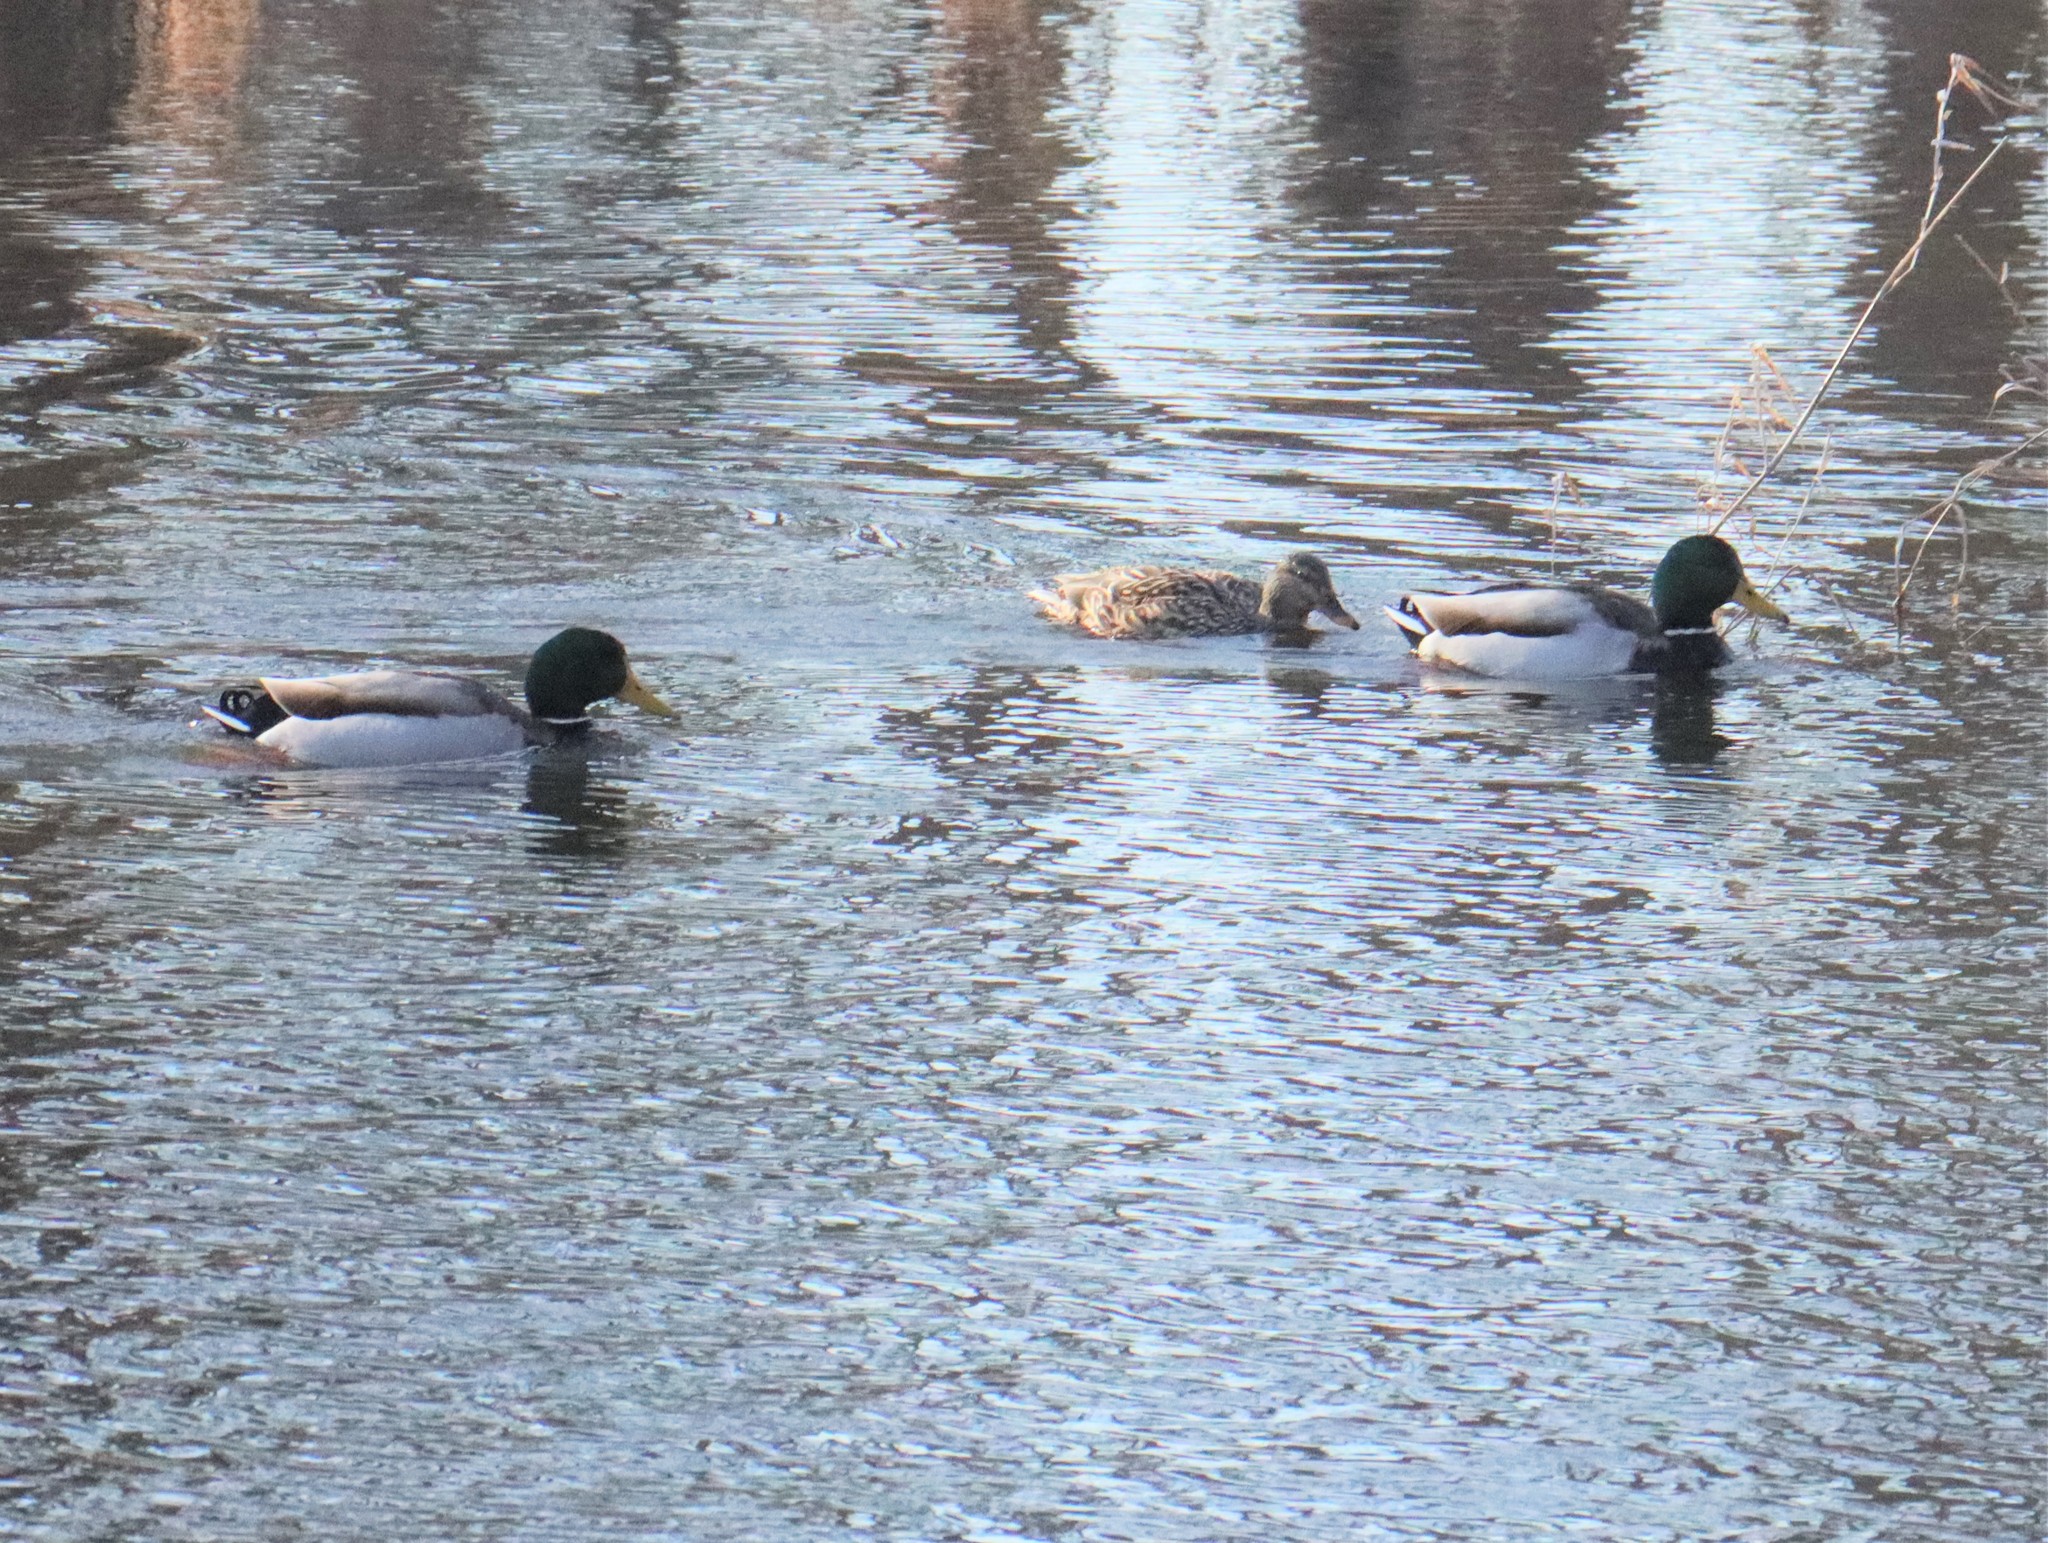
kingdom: Animalia
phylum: Chordata
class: Aves
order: Anseriformes
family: Anatidae
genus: Anas
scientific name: Anas platyrhynchos
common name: Mallard
